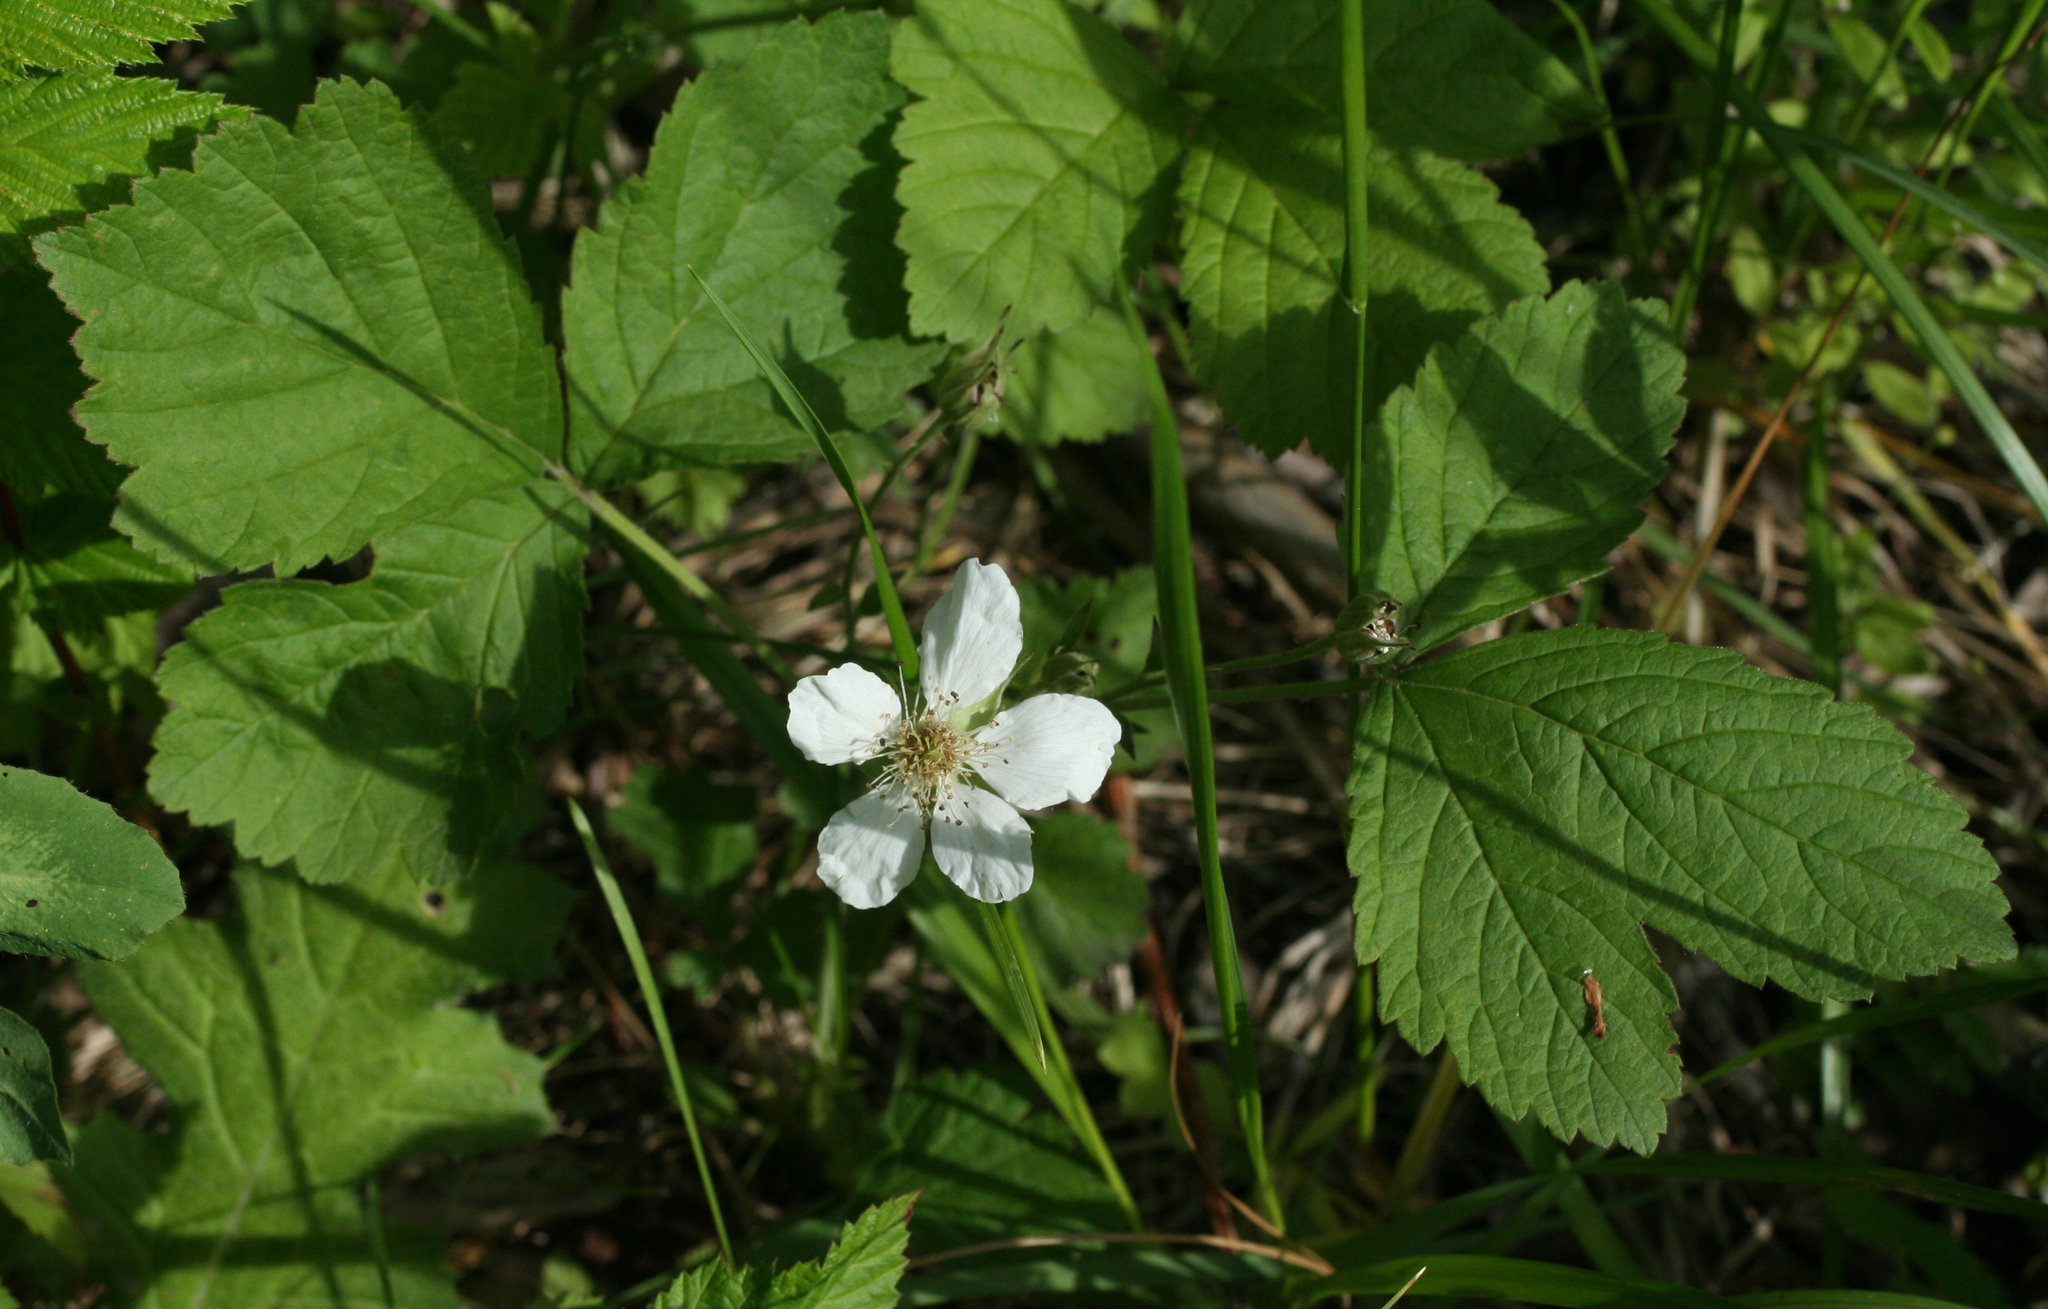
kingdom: Plantae
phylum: Tracheophyta
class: Magnoliopsida
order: Rosales
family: Rosaceae
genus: Rubus
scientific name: Rubus caesius
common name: Dewberry
